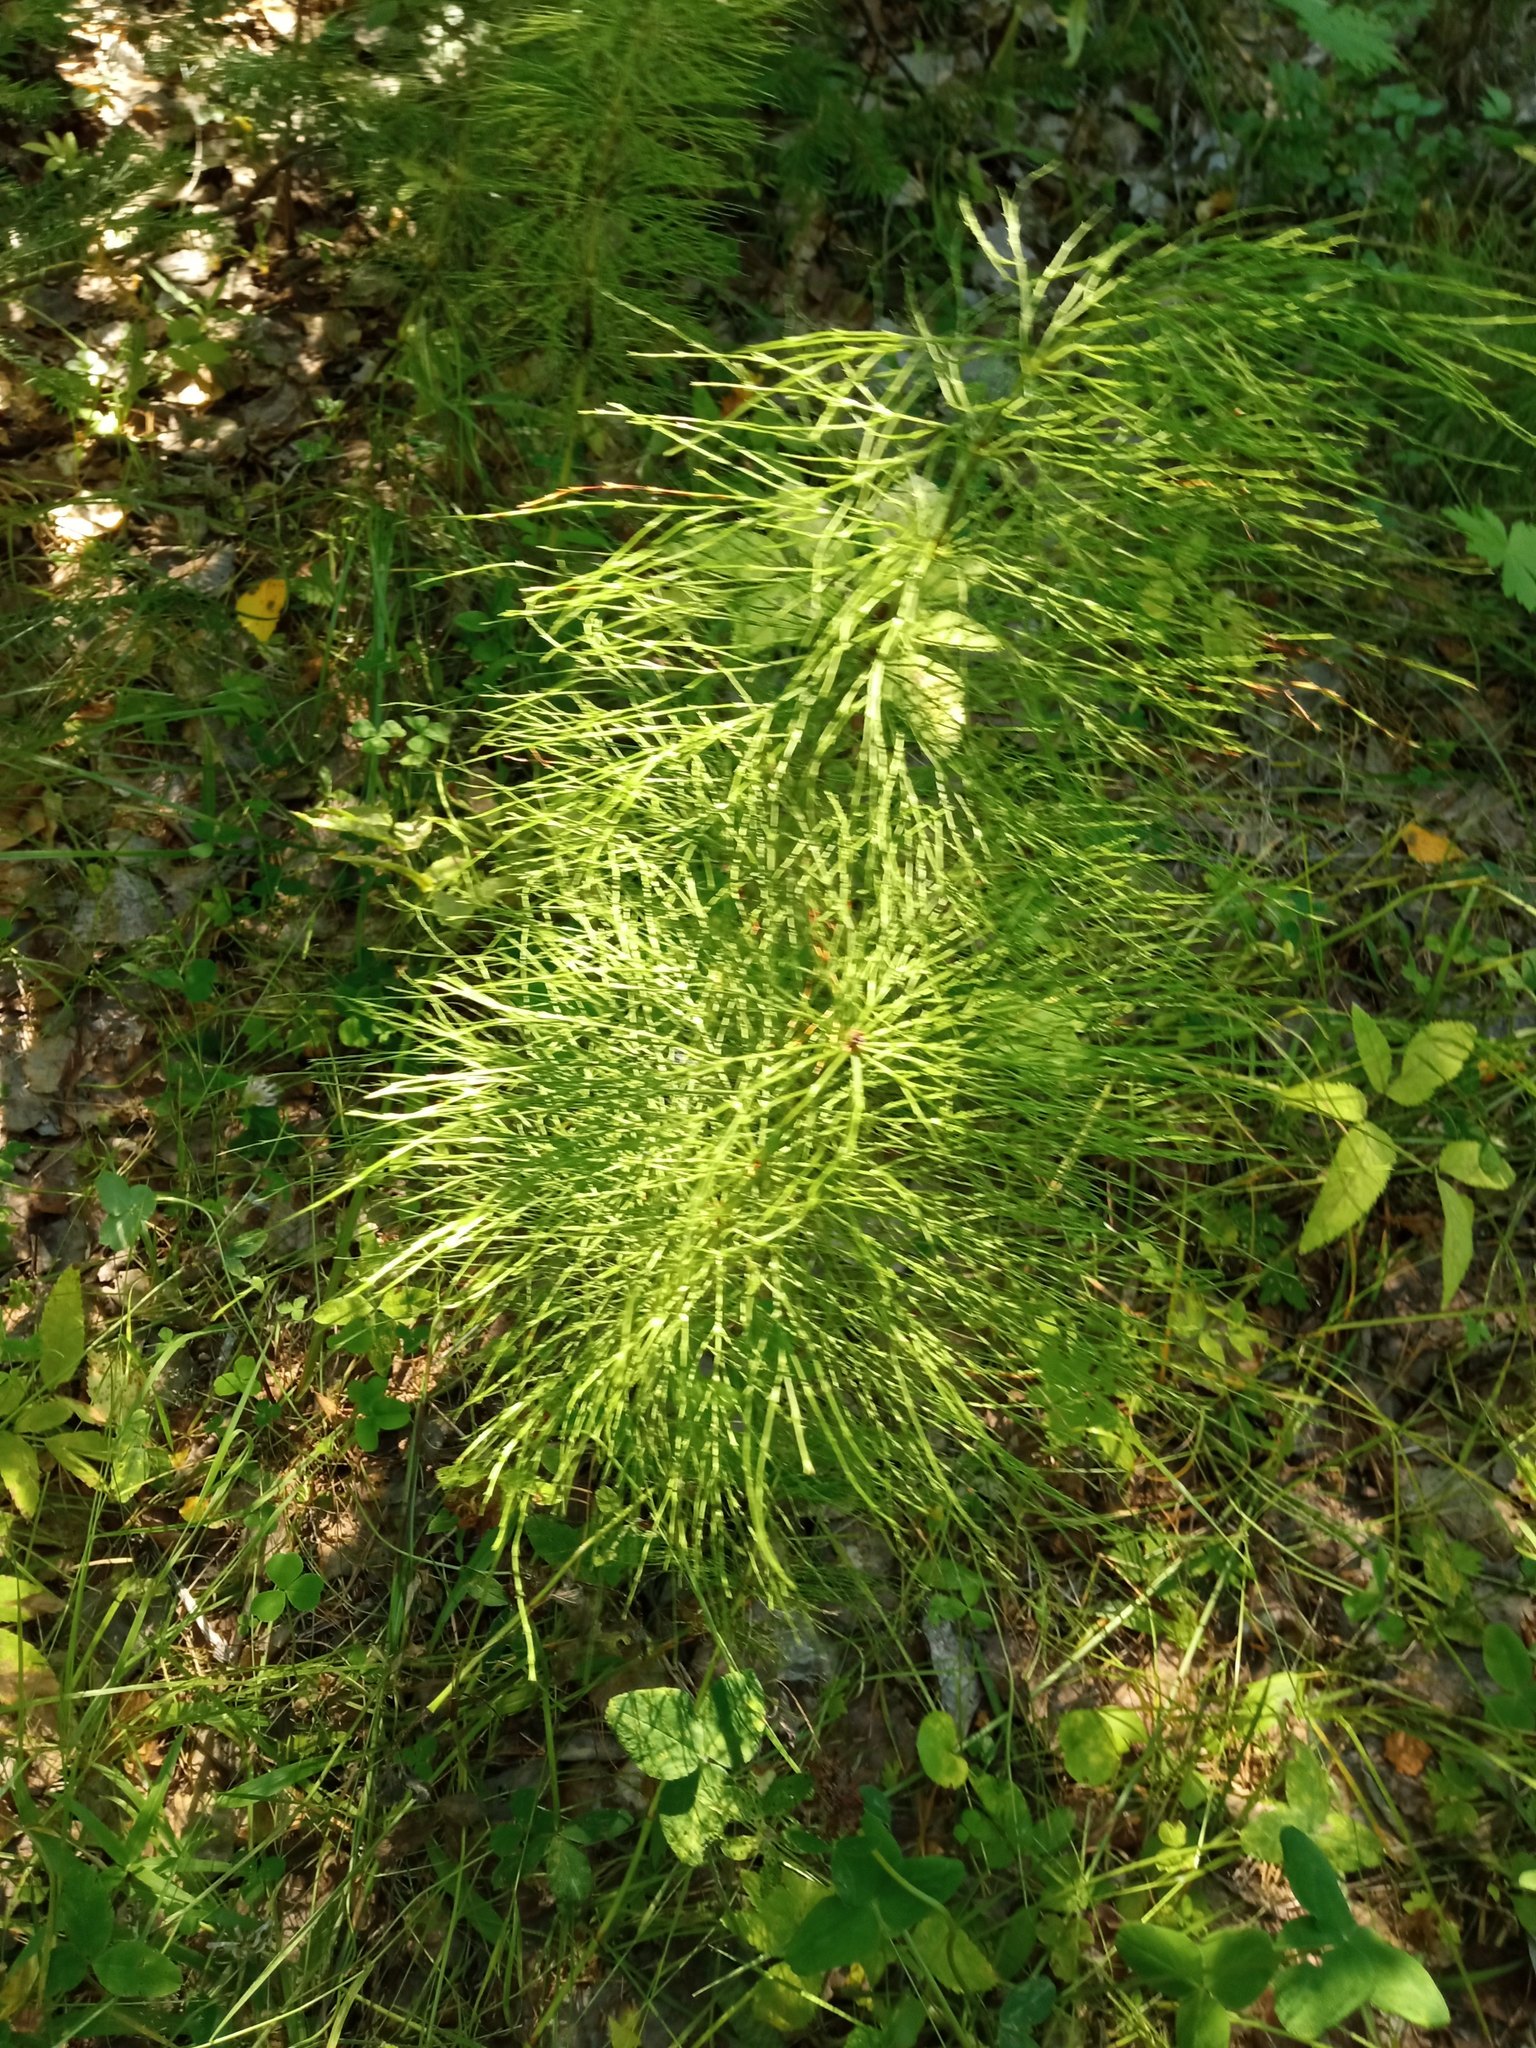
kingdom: Plantae
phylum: Tracheophyta
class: Polypodiopsida
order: Equisetales
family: Equisetaceae
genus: Equisetum
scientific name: Equisetum sylvaticum
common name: Wood horsetail
